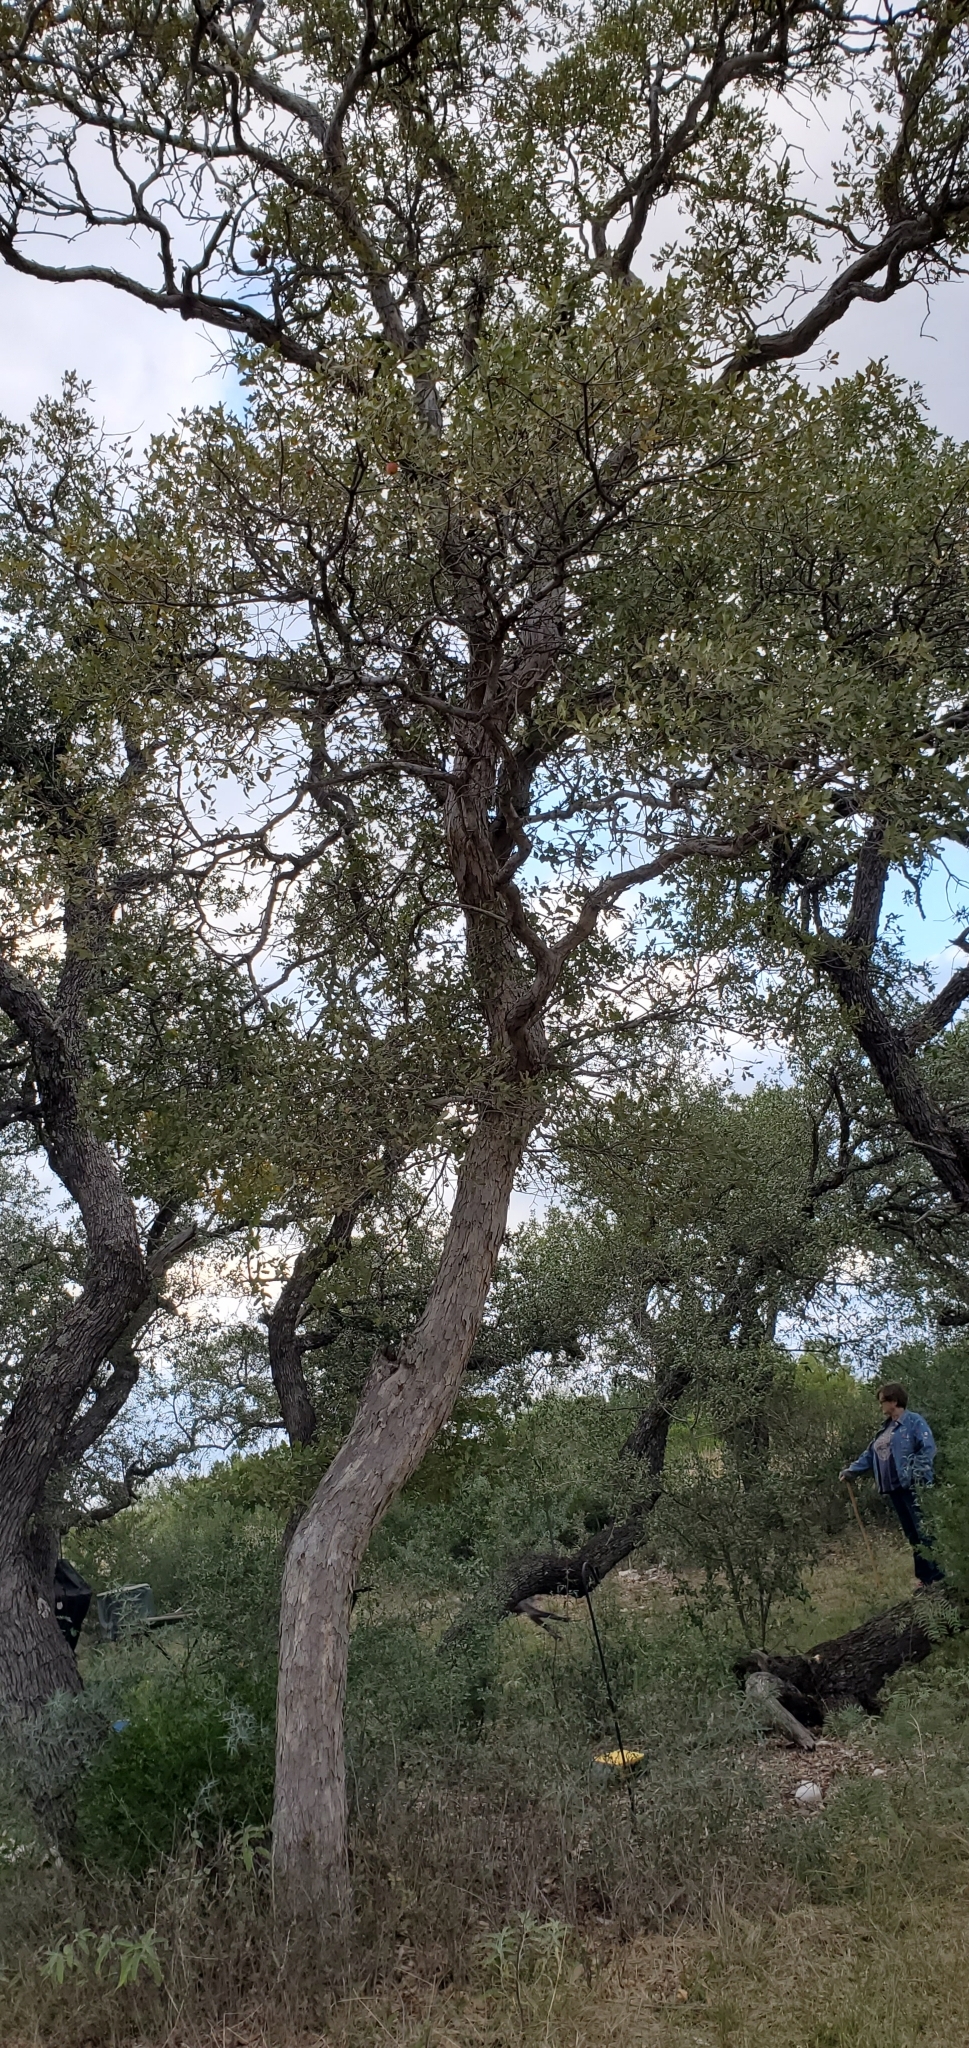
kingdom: Plantae
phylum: Tracheophyta
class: Magnoliopsida
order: Fagales
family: Fagaceae
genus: Quercus
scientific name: Quercus sinuata
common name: Durand oak
